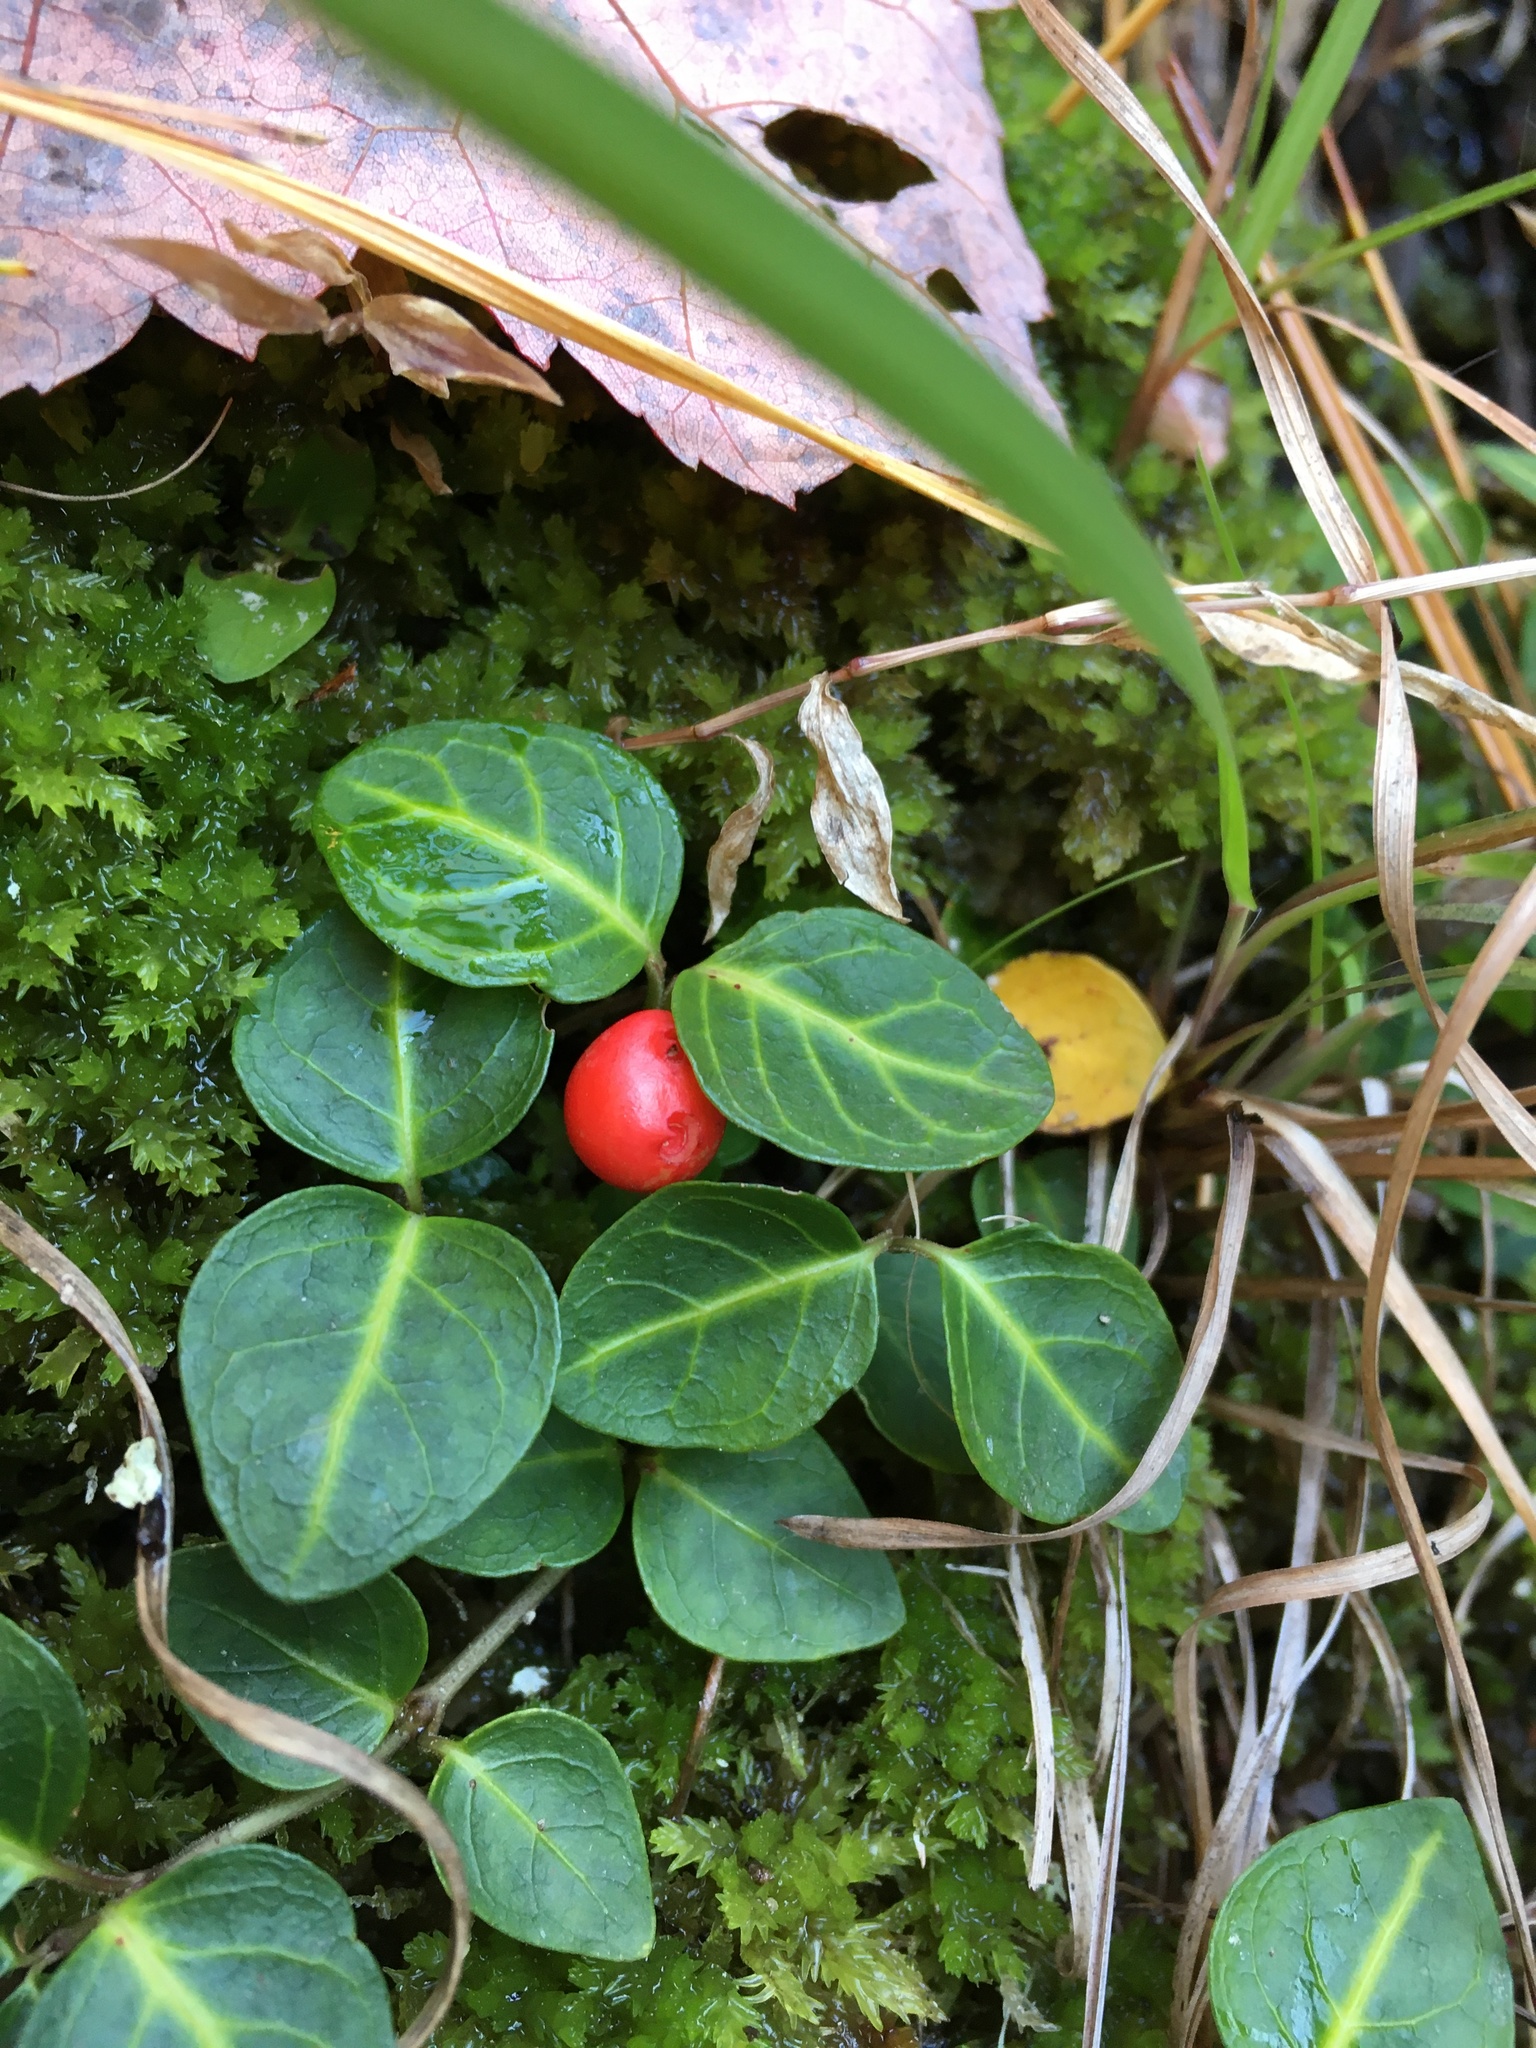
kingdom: Plantae
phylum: Tracheophyta
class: Magnoliopsida
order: Gentianales
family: Rubiaceae
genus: Mitchella
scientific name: Mitchella repens
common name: Partridge-berry
